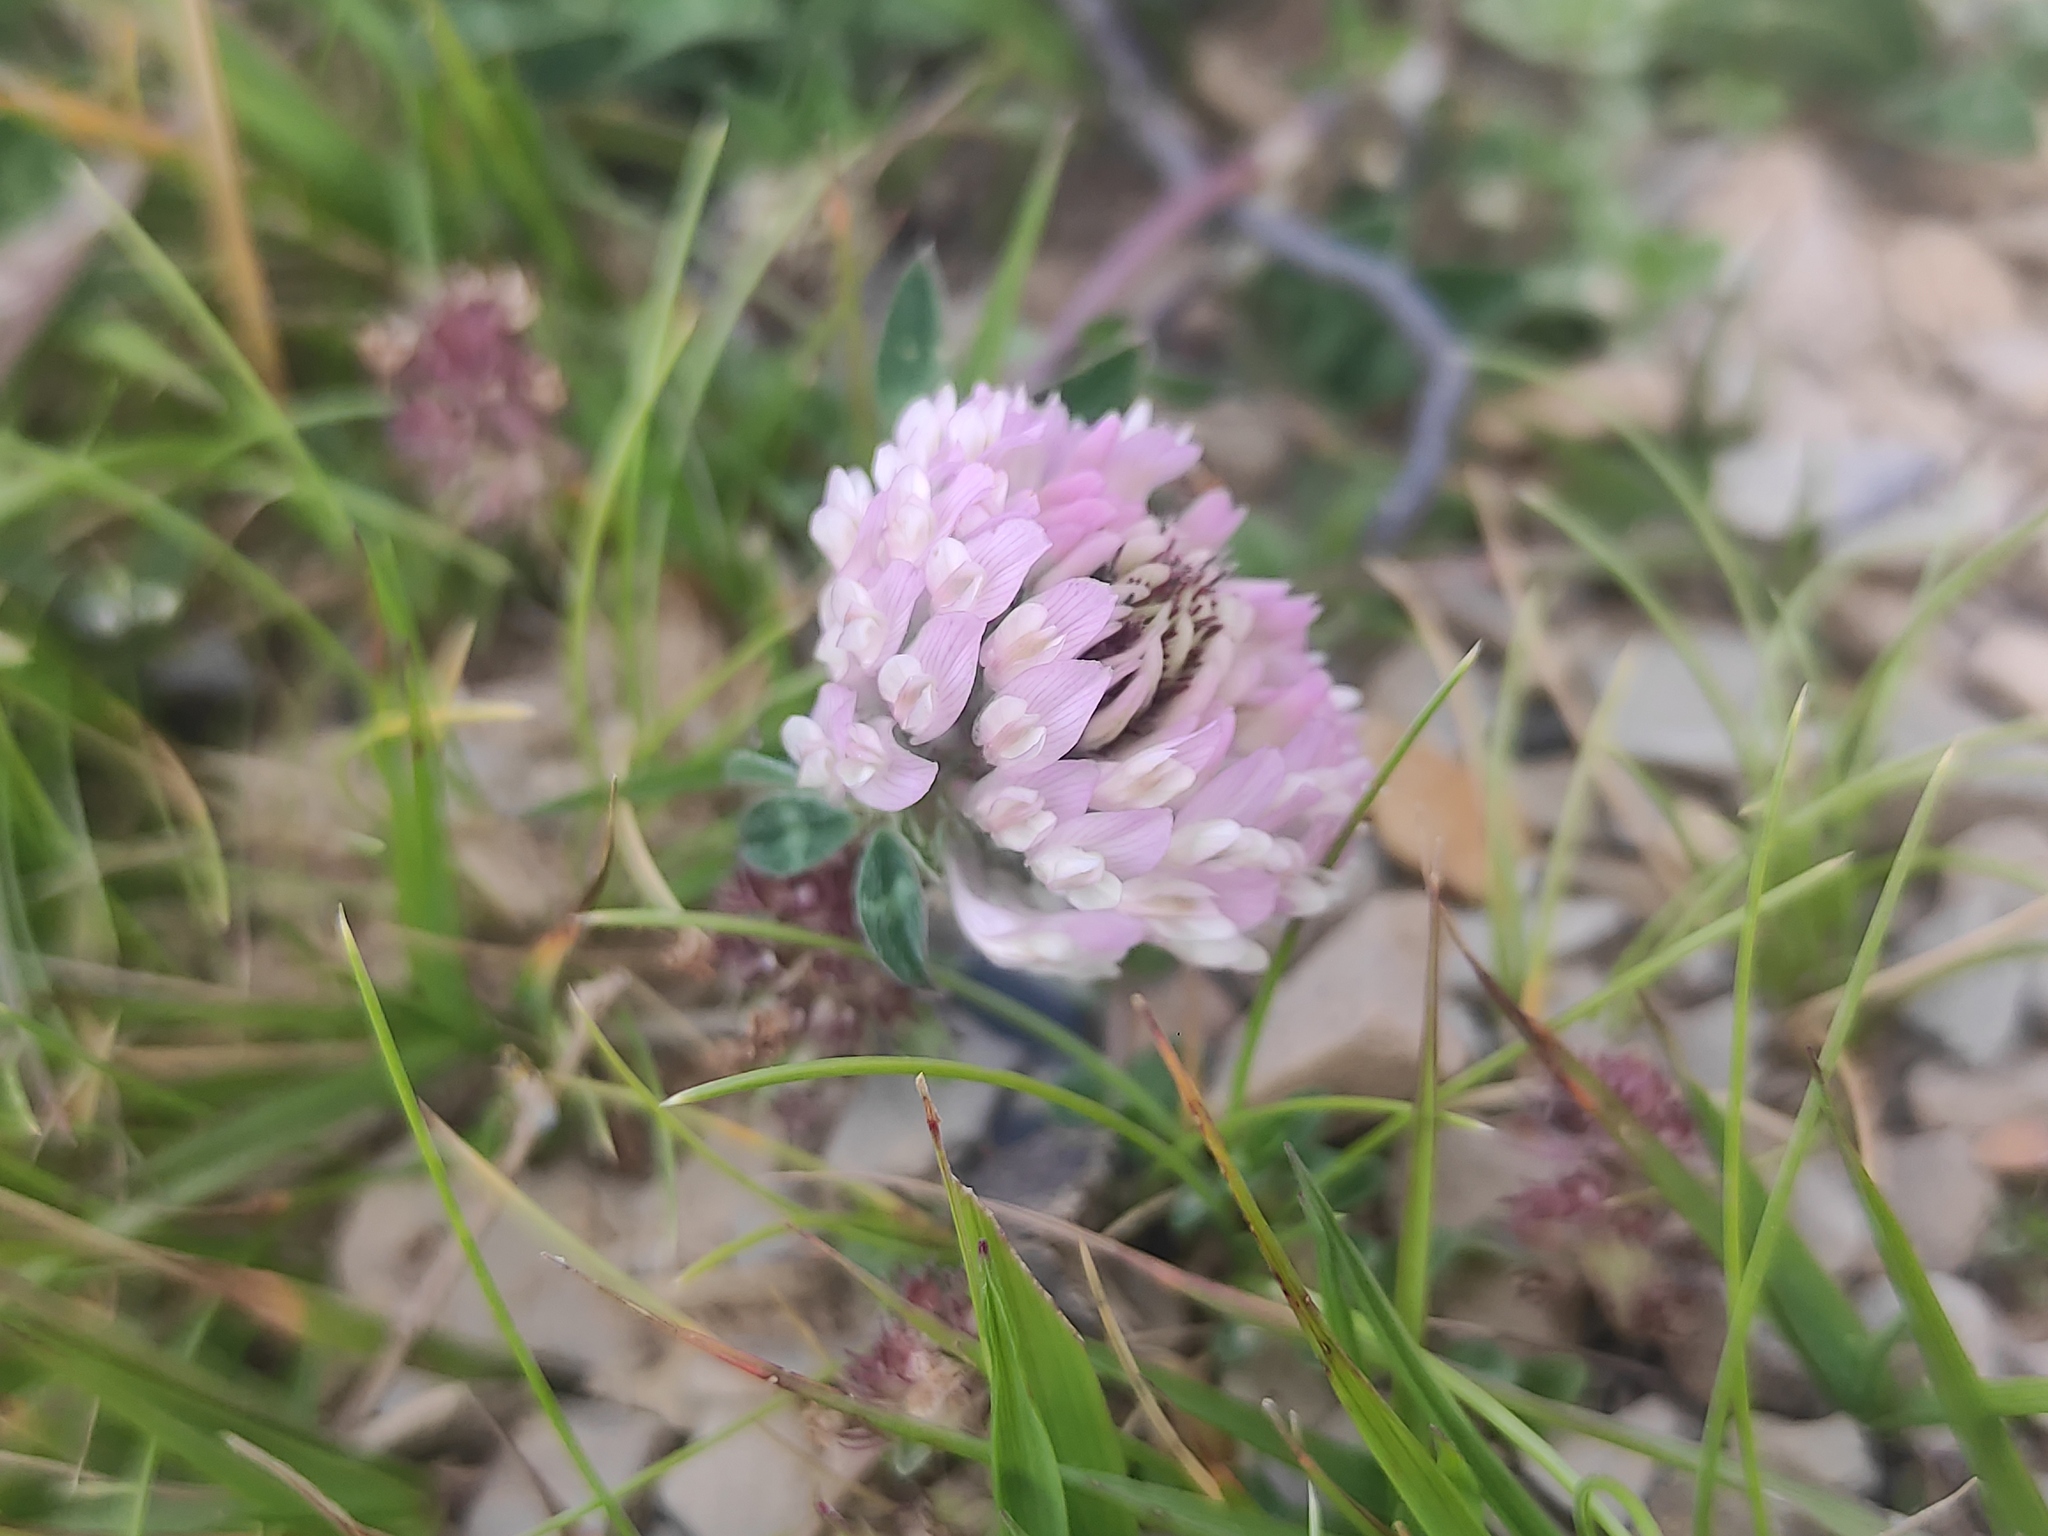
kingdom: Plantae
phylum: Tracheophyta
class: Magnoliopsida
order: Fabales
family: Fabaceae
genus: Trifolium
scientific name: Trifolium pratense
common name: Red clover
